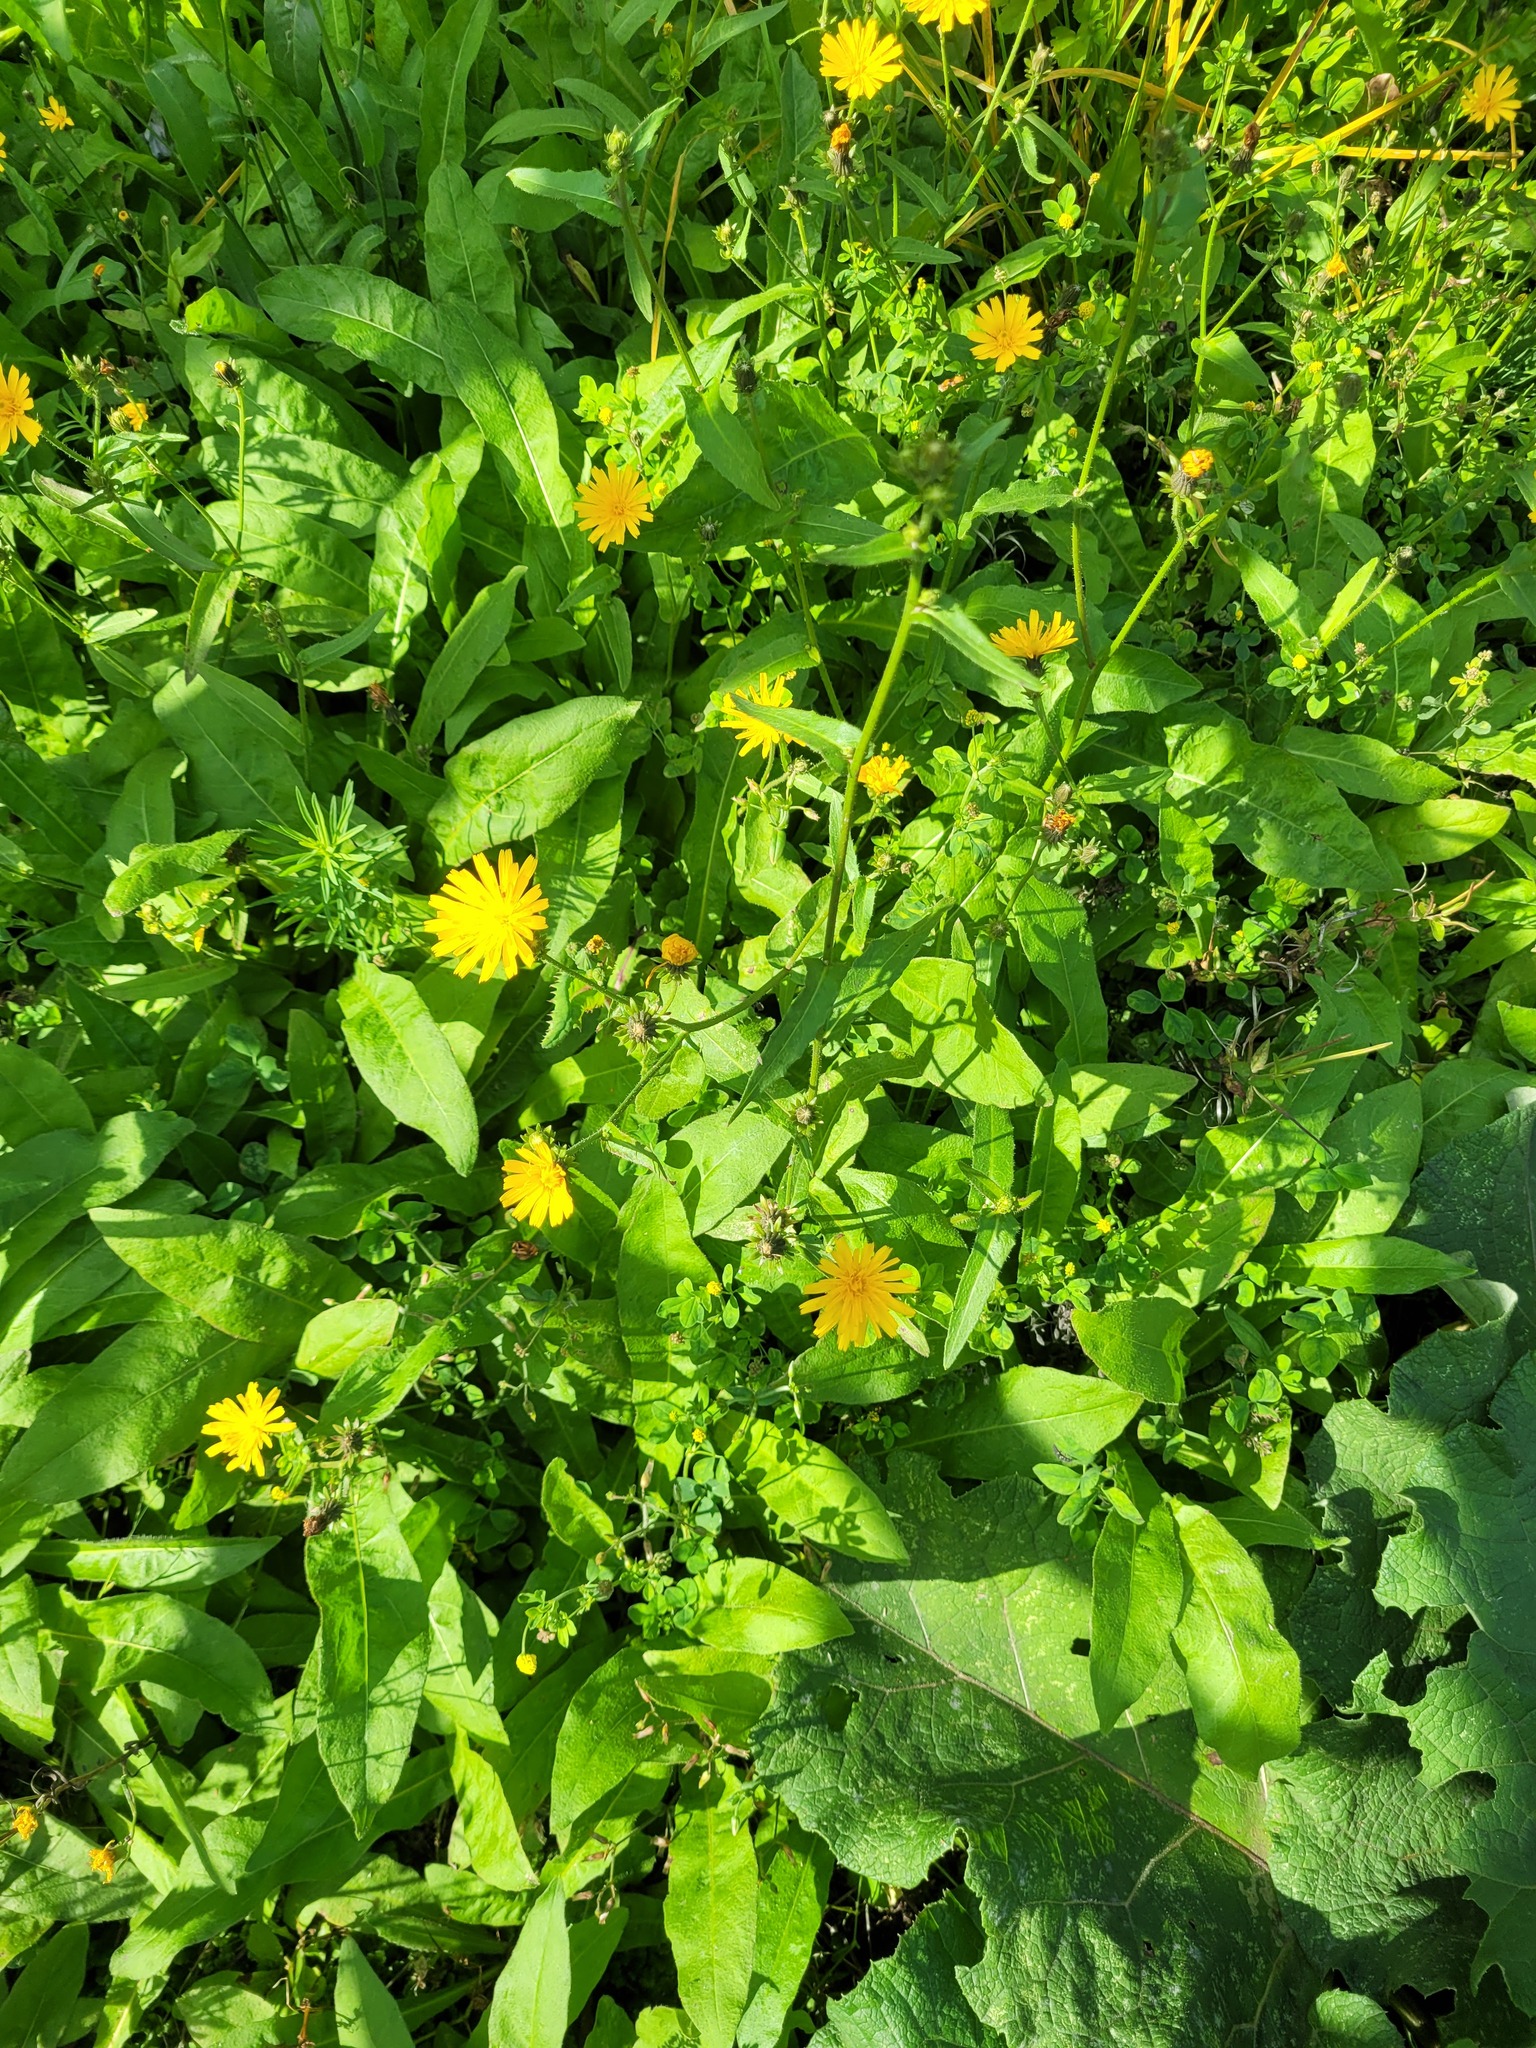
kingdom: Plantae
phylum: Tracheophyta
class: Magnoliopsida
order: Asterales
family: Asteraceae
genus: Picris
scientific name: Picris hieracioides
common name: Hawkweed oxtongue
